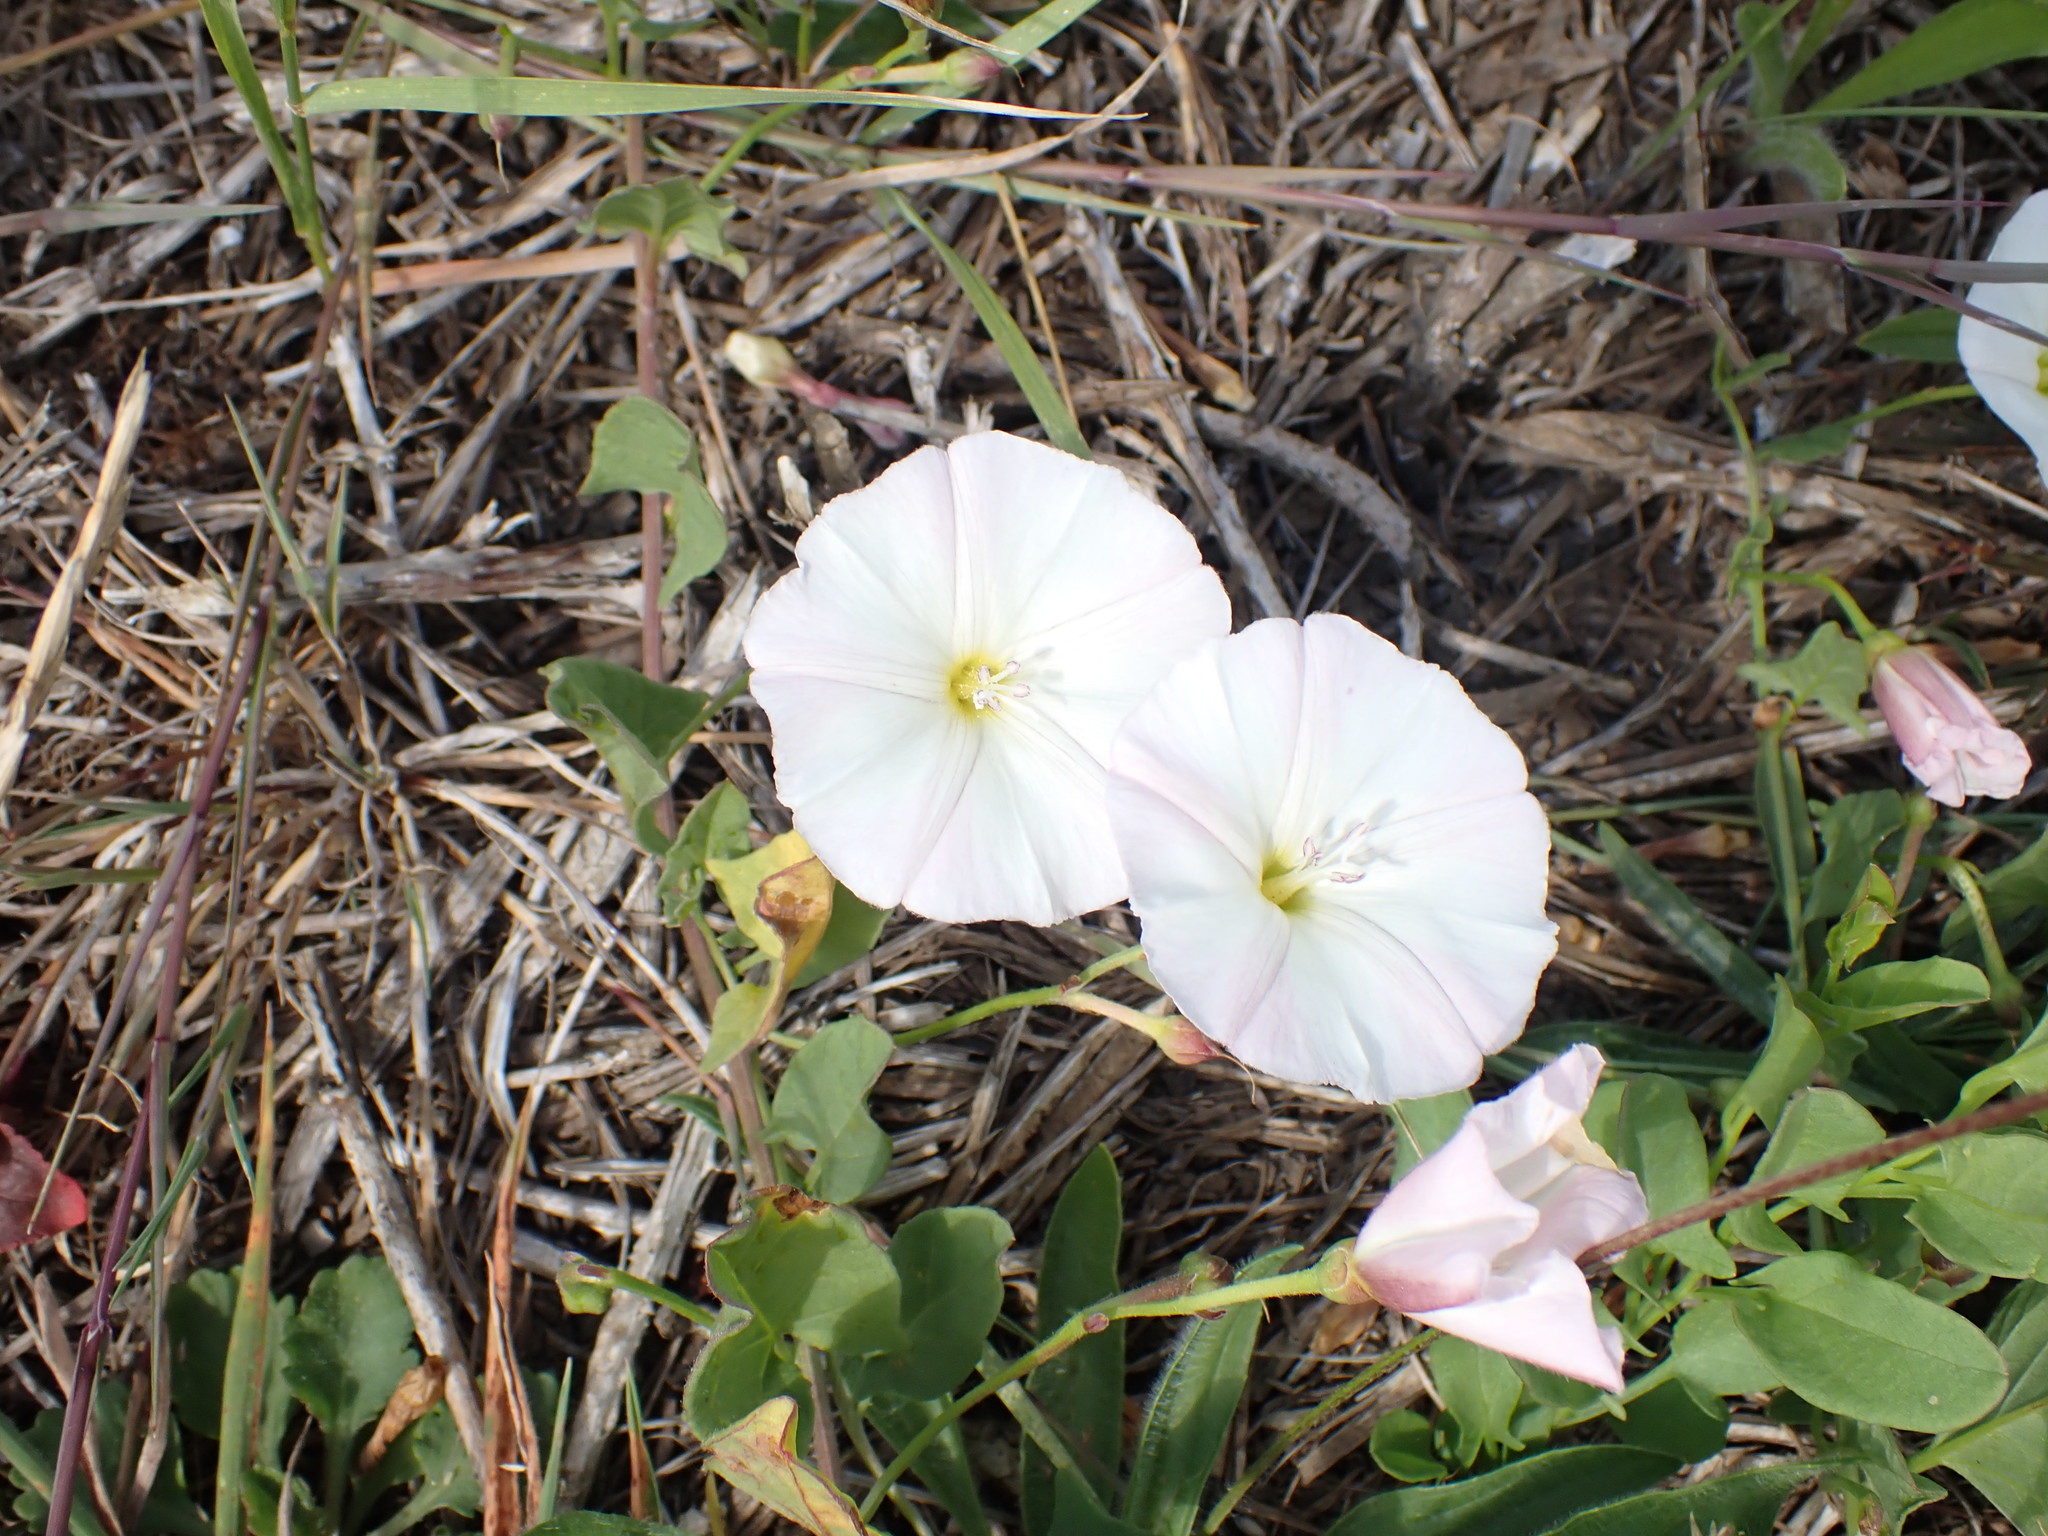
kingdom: Plantae
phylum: Tracheophyta
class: Magnoliopsida
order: Solanales
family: Convolvulaceae
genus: Convolvulus
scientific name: Convolvulus arvensis
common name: Field bindweed
